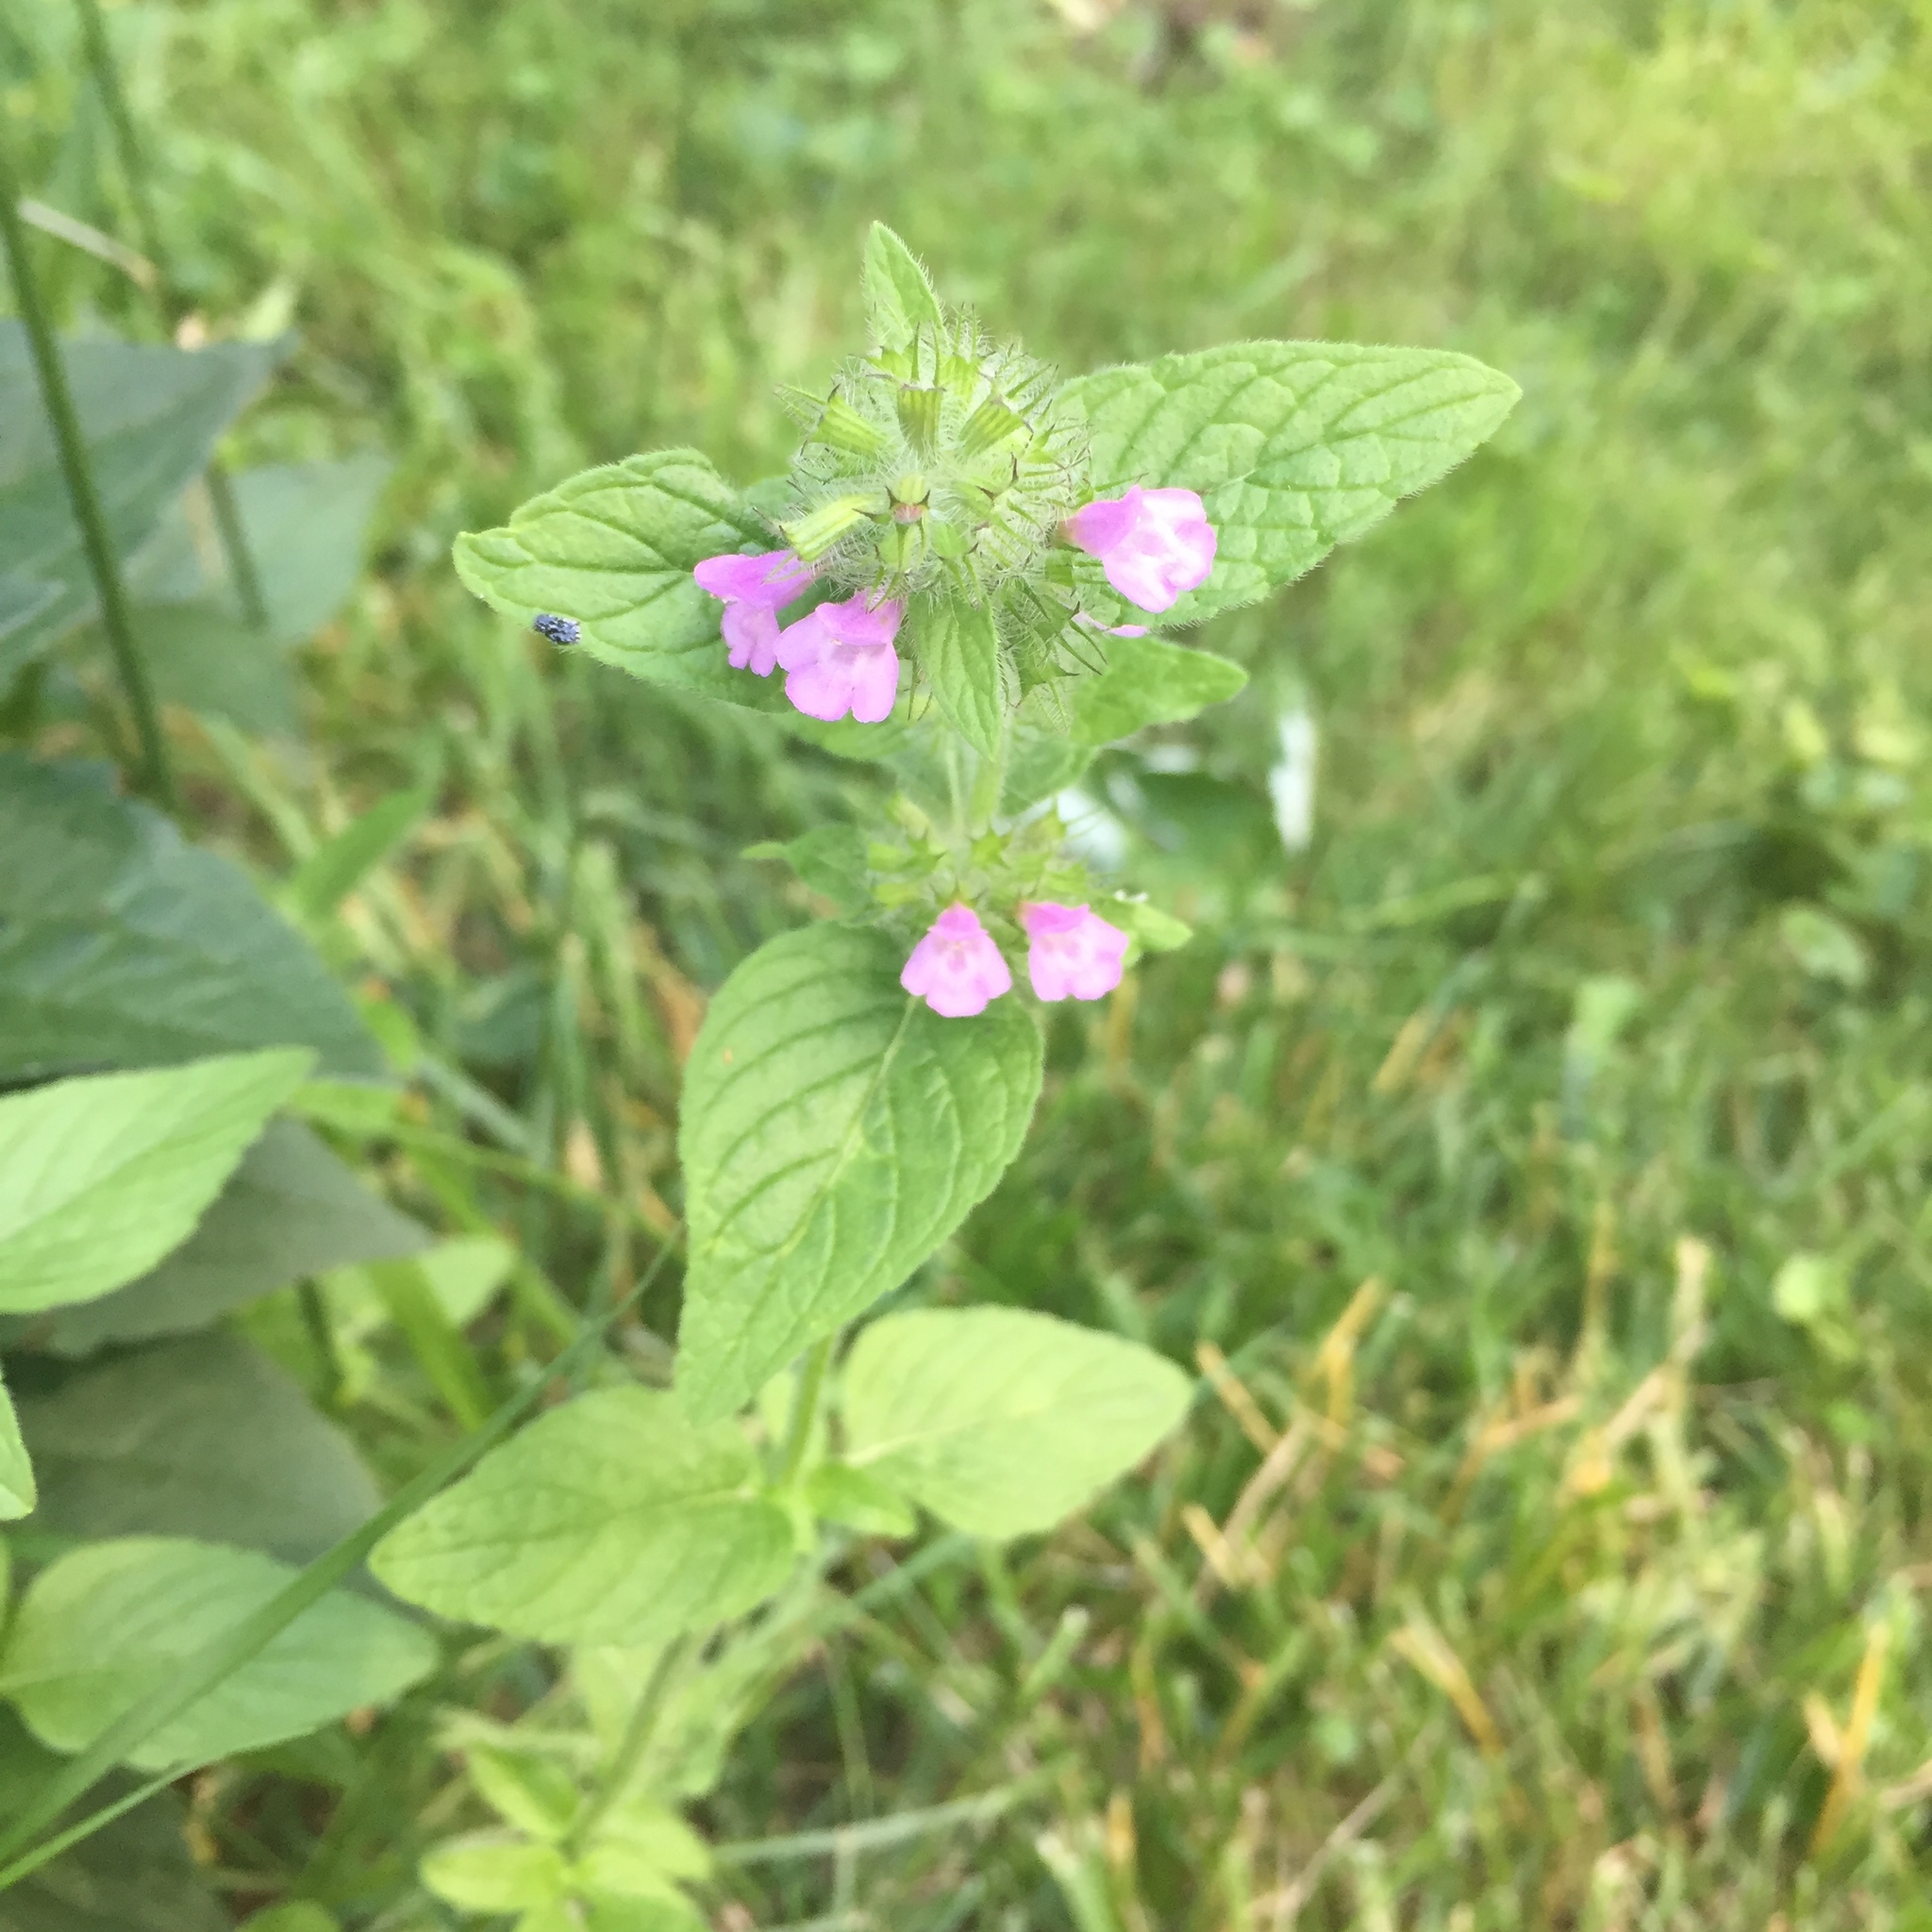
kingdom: Plantae
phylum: Tracheophyta
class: Magnoliopsida
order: Lamiales
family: Lamiaceae
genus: Clinopodium
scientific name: Clinopodium vulgare
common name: Wild basil
